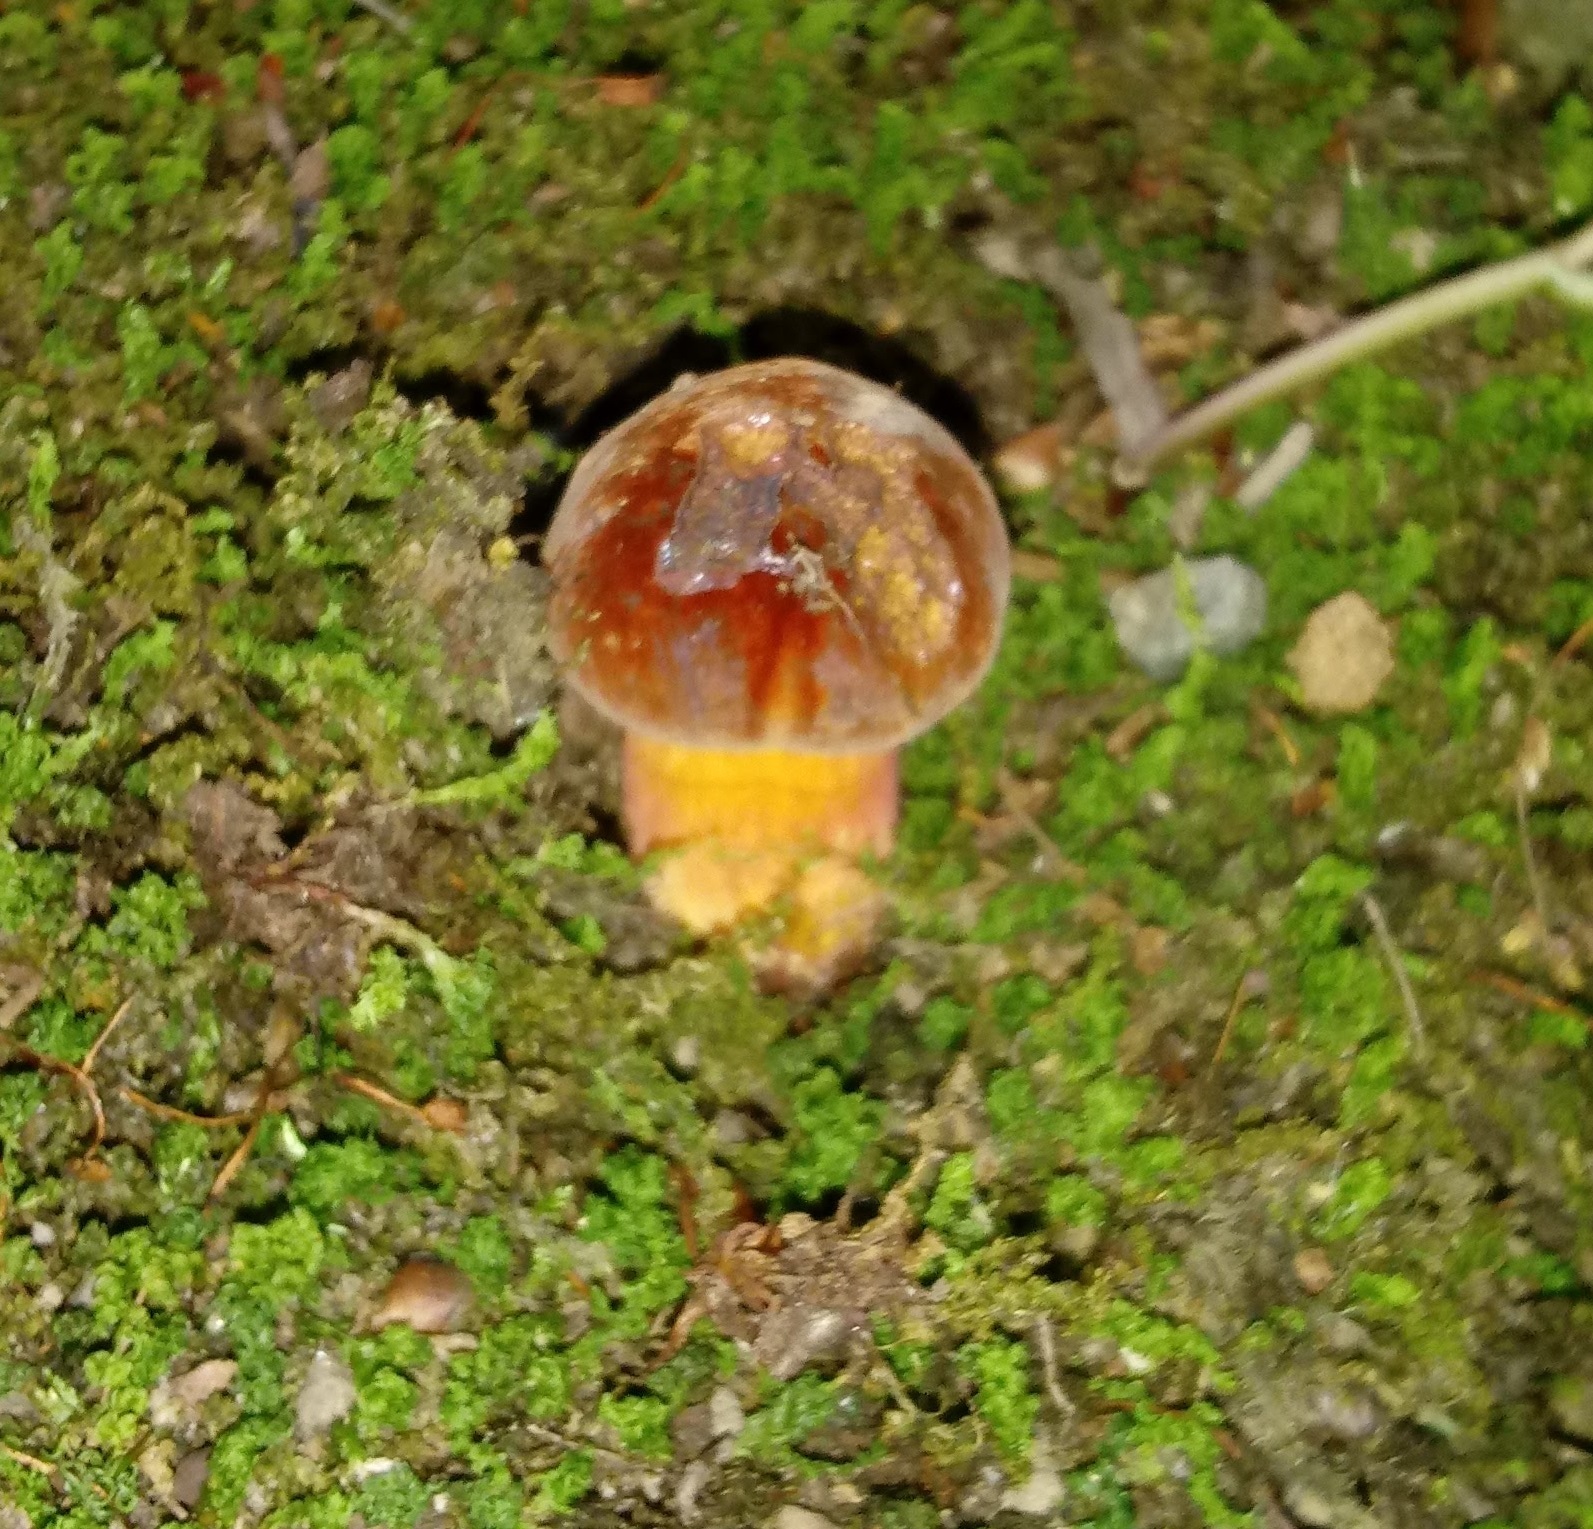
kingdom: Fungi
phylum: Basidiomycota
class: Agaricomycetes
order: Boletales
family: Boletaceae
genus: Boletus
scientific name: Boletus rufocinnamomeus
